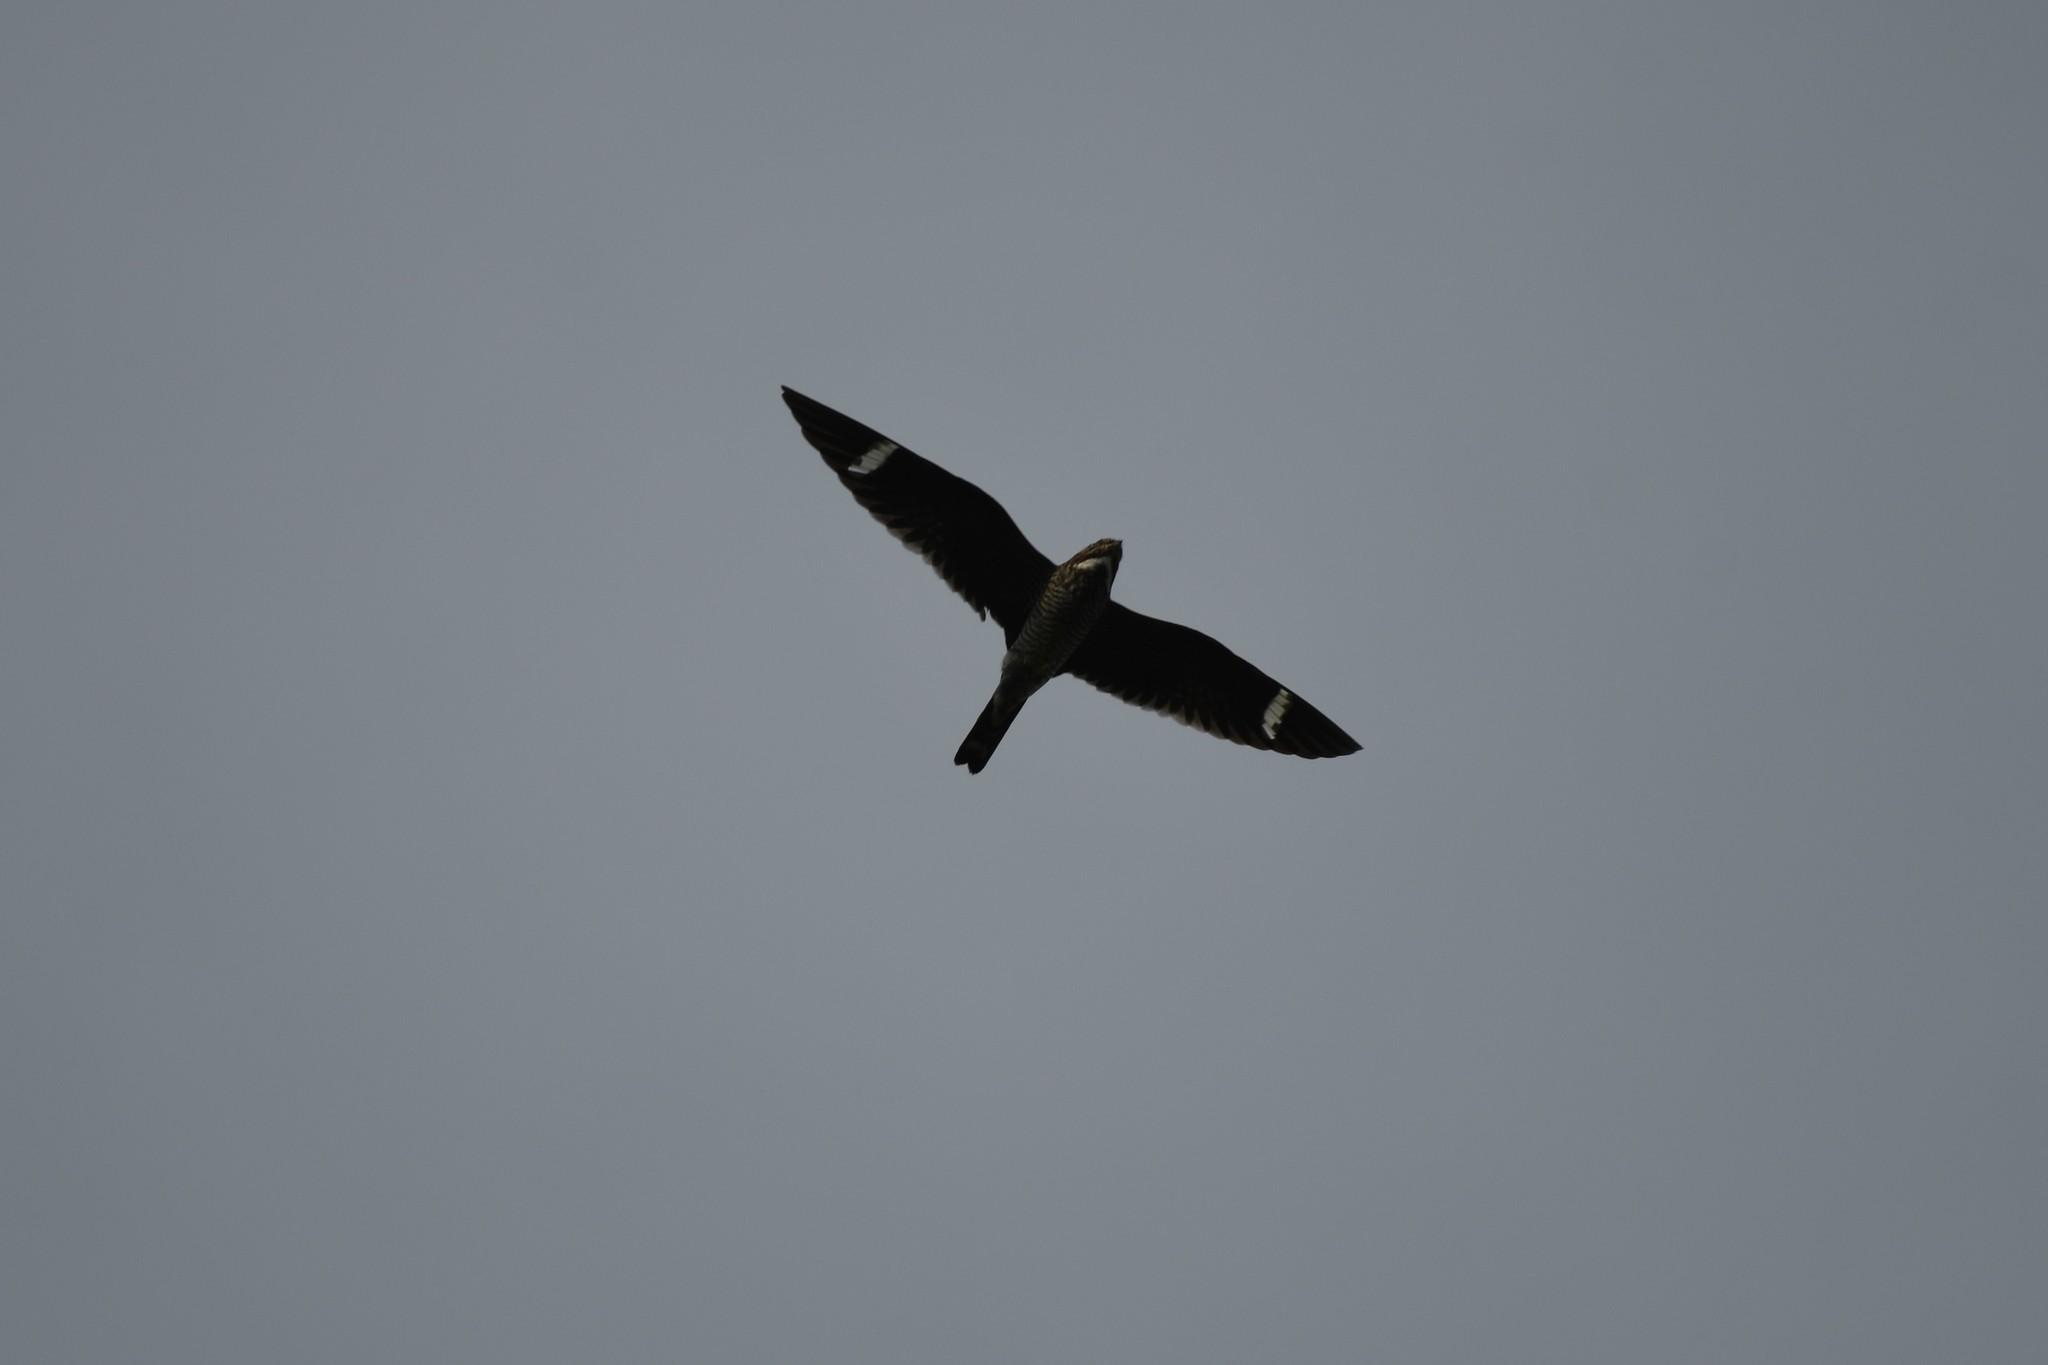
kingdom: Animalia
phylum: Chordata
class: Aves
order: Caprimulgiformes
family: Caprimulgidae
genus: Chordeiles
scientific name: Chordeiles minor
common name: Common nighthawk
